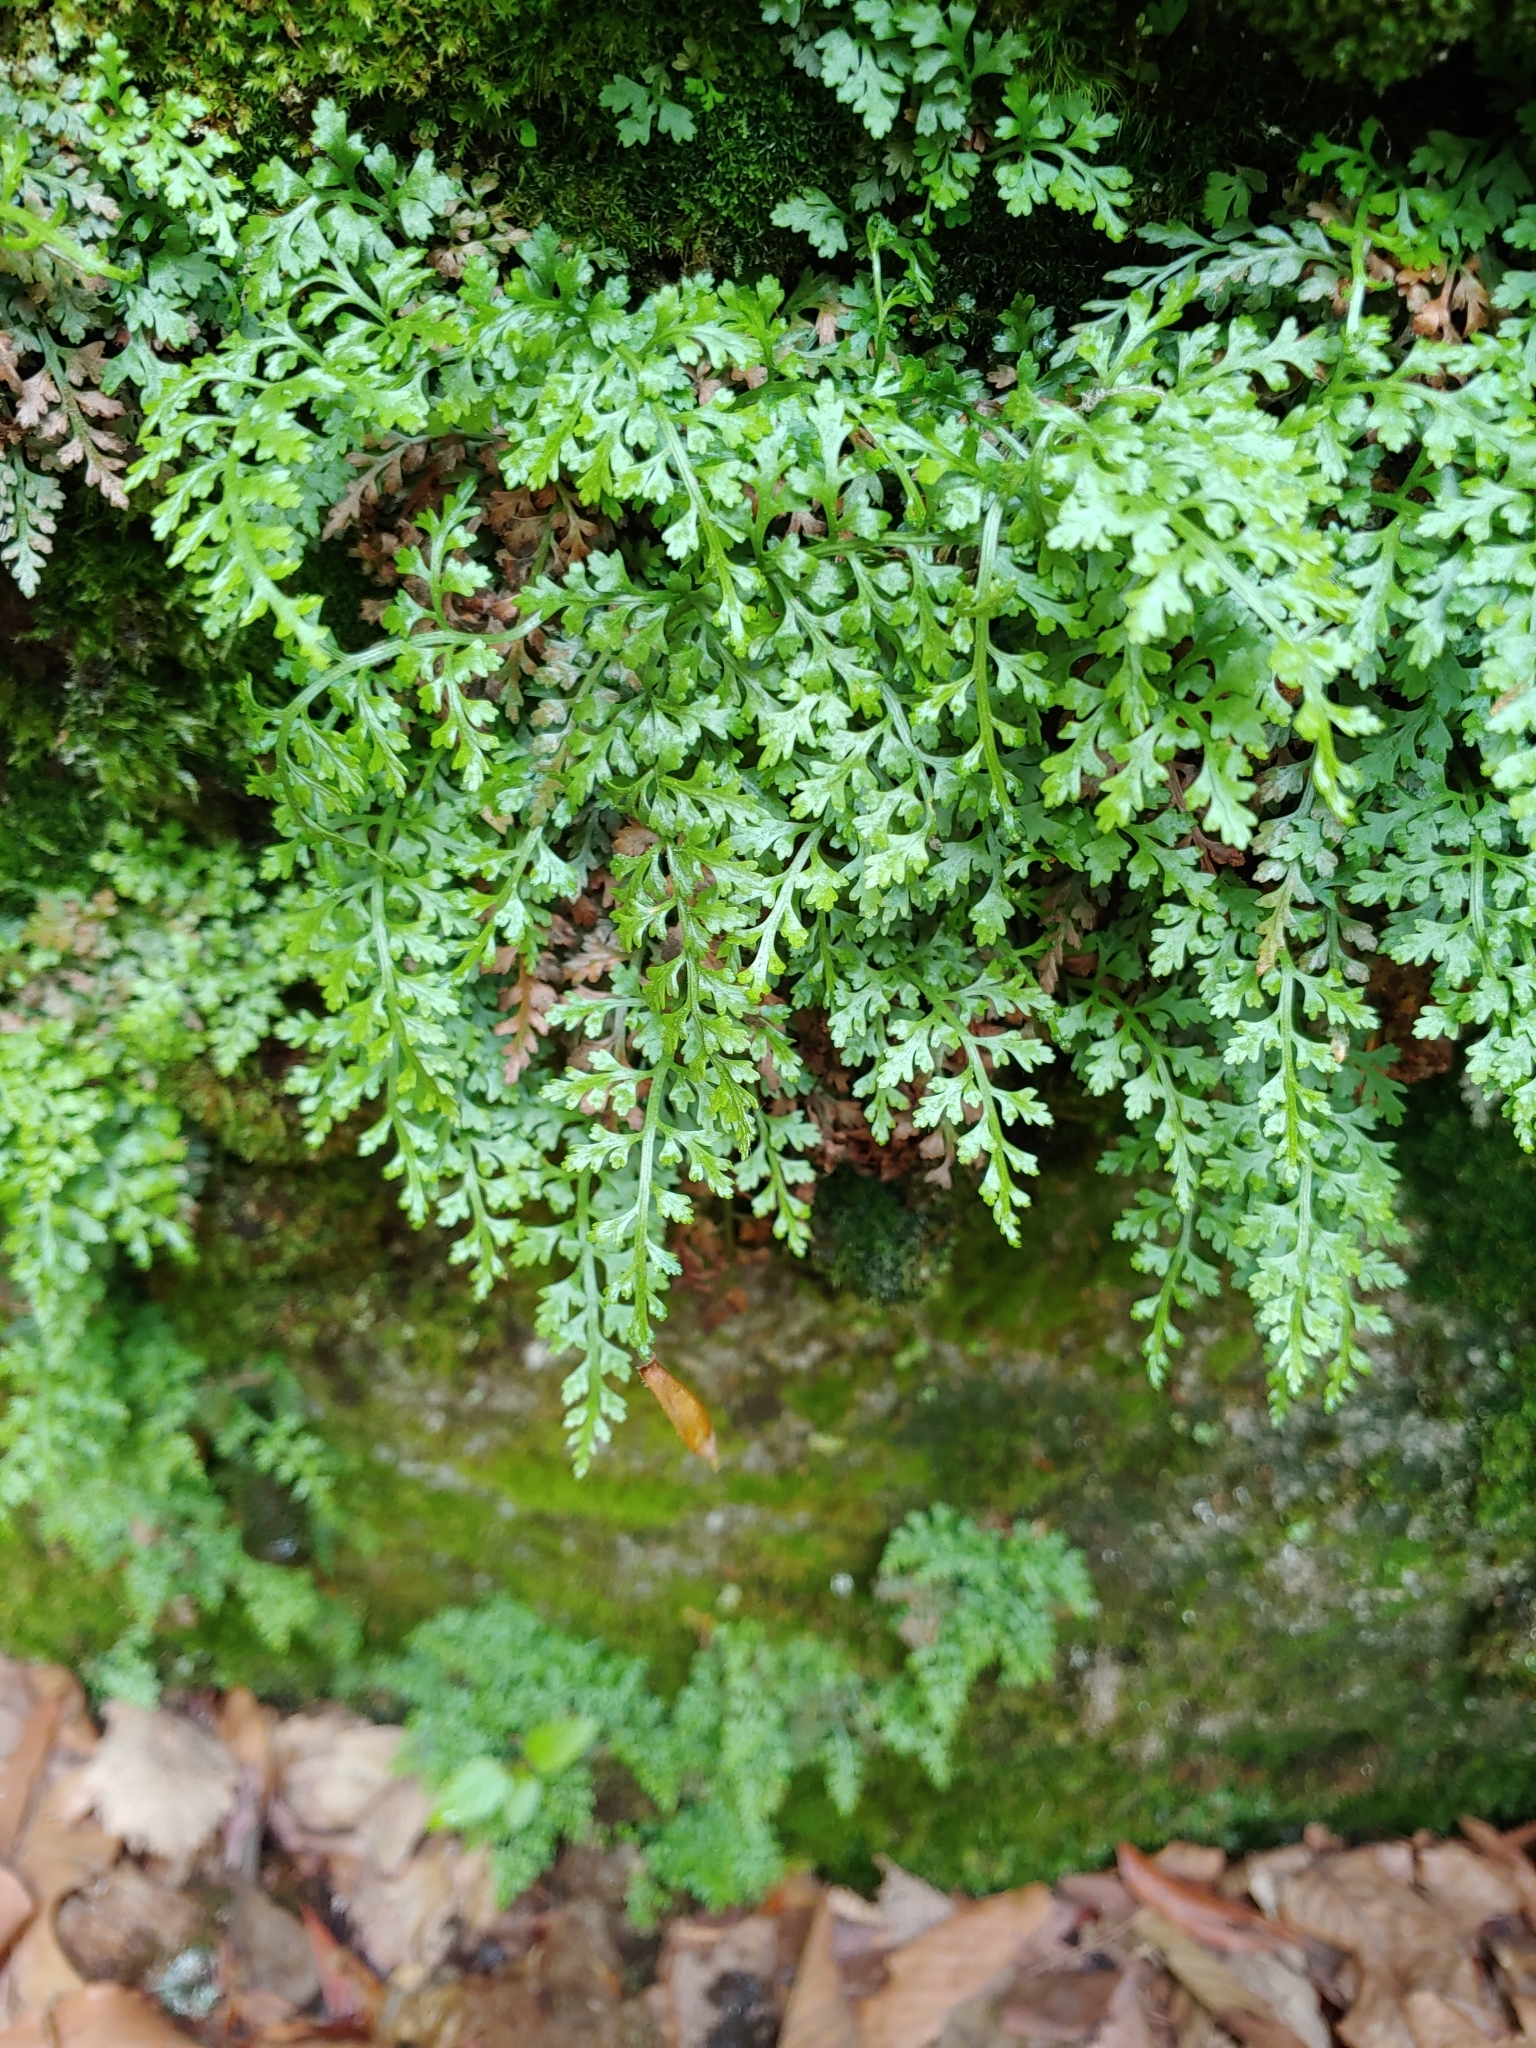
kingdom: Plantae
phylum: Tracheophyta
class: Polypodiopsida
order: Polypodiales
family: Aspleniaceae
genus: Asplenium
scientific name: Asplenium montanum
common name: Mountain spleenwort
